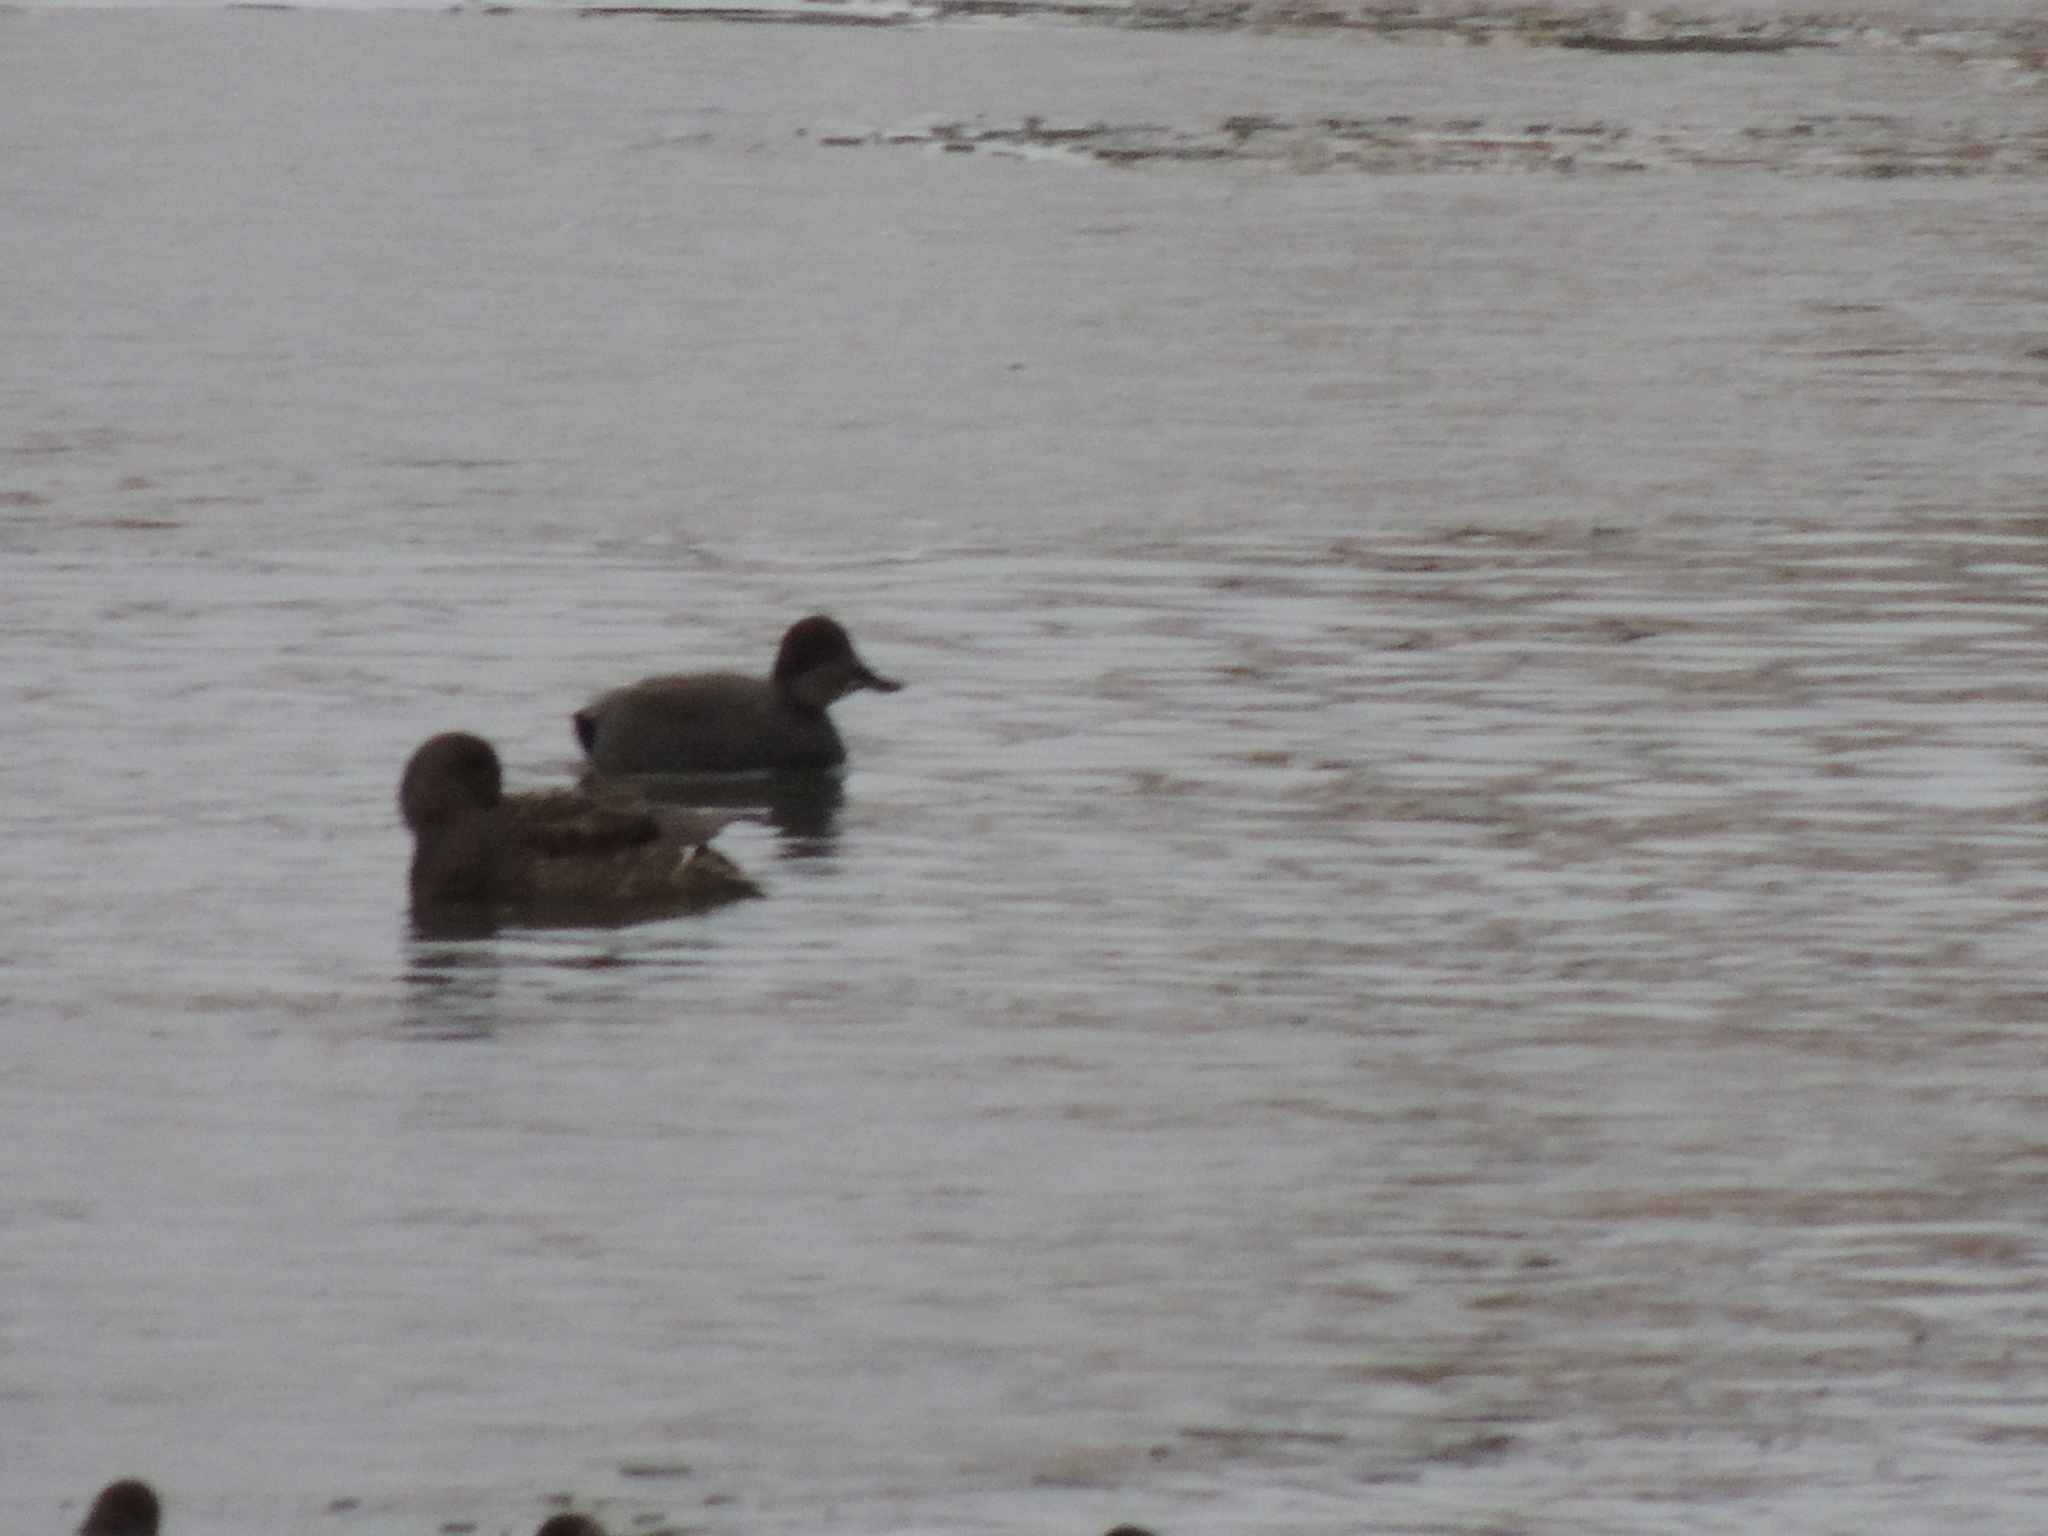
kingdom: Animalia
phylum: Chordata
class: Aves
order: Anseriformes
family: Anatidae
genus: Mareca
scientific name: Mareca strepera
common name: Gadwall
